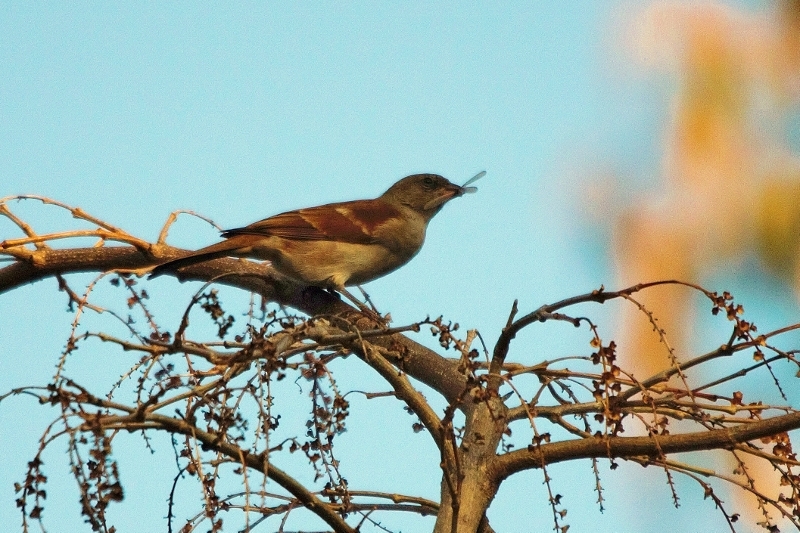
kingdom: Animalia
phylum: Chordata
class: Aves
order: Passeriformes
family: Passeridae
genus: Passer
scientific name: Passer diffusus
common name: Southern grey-headed sparrow
